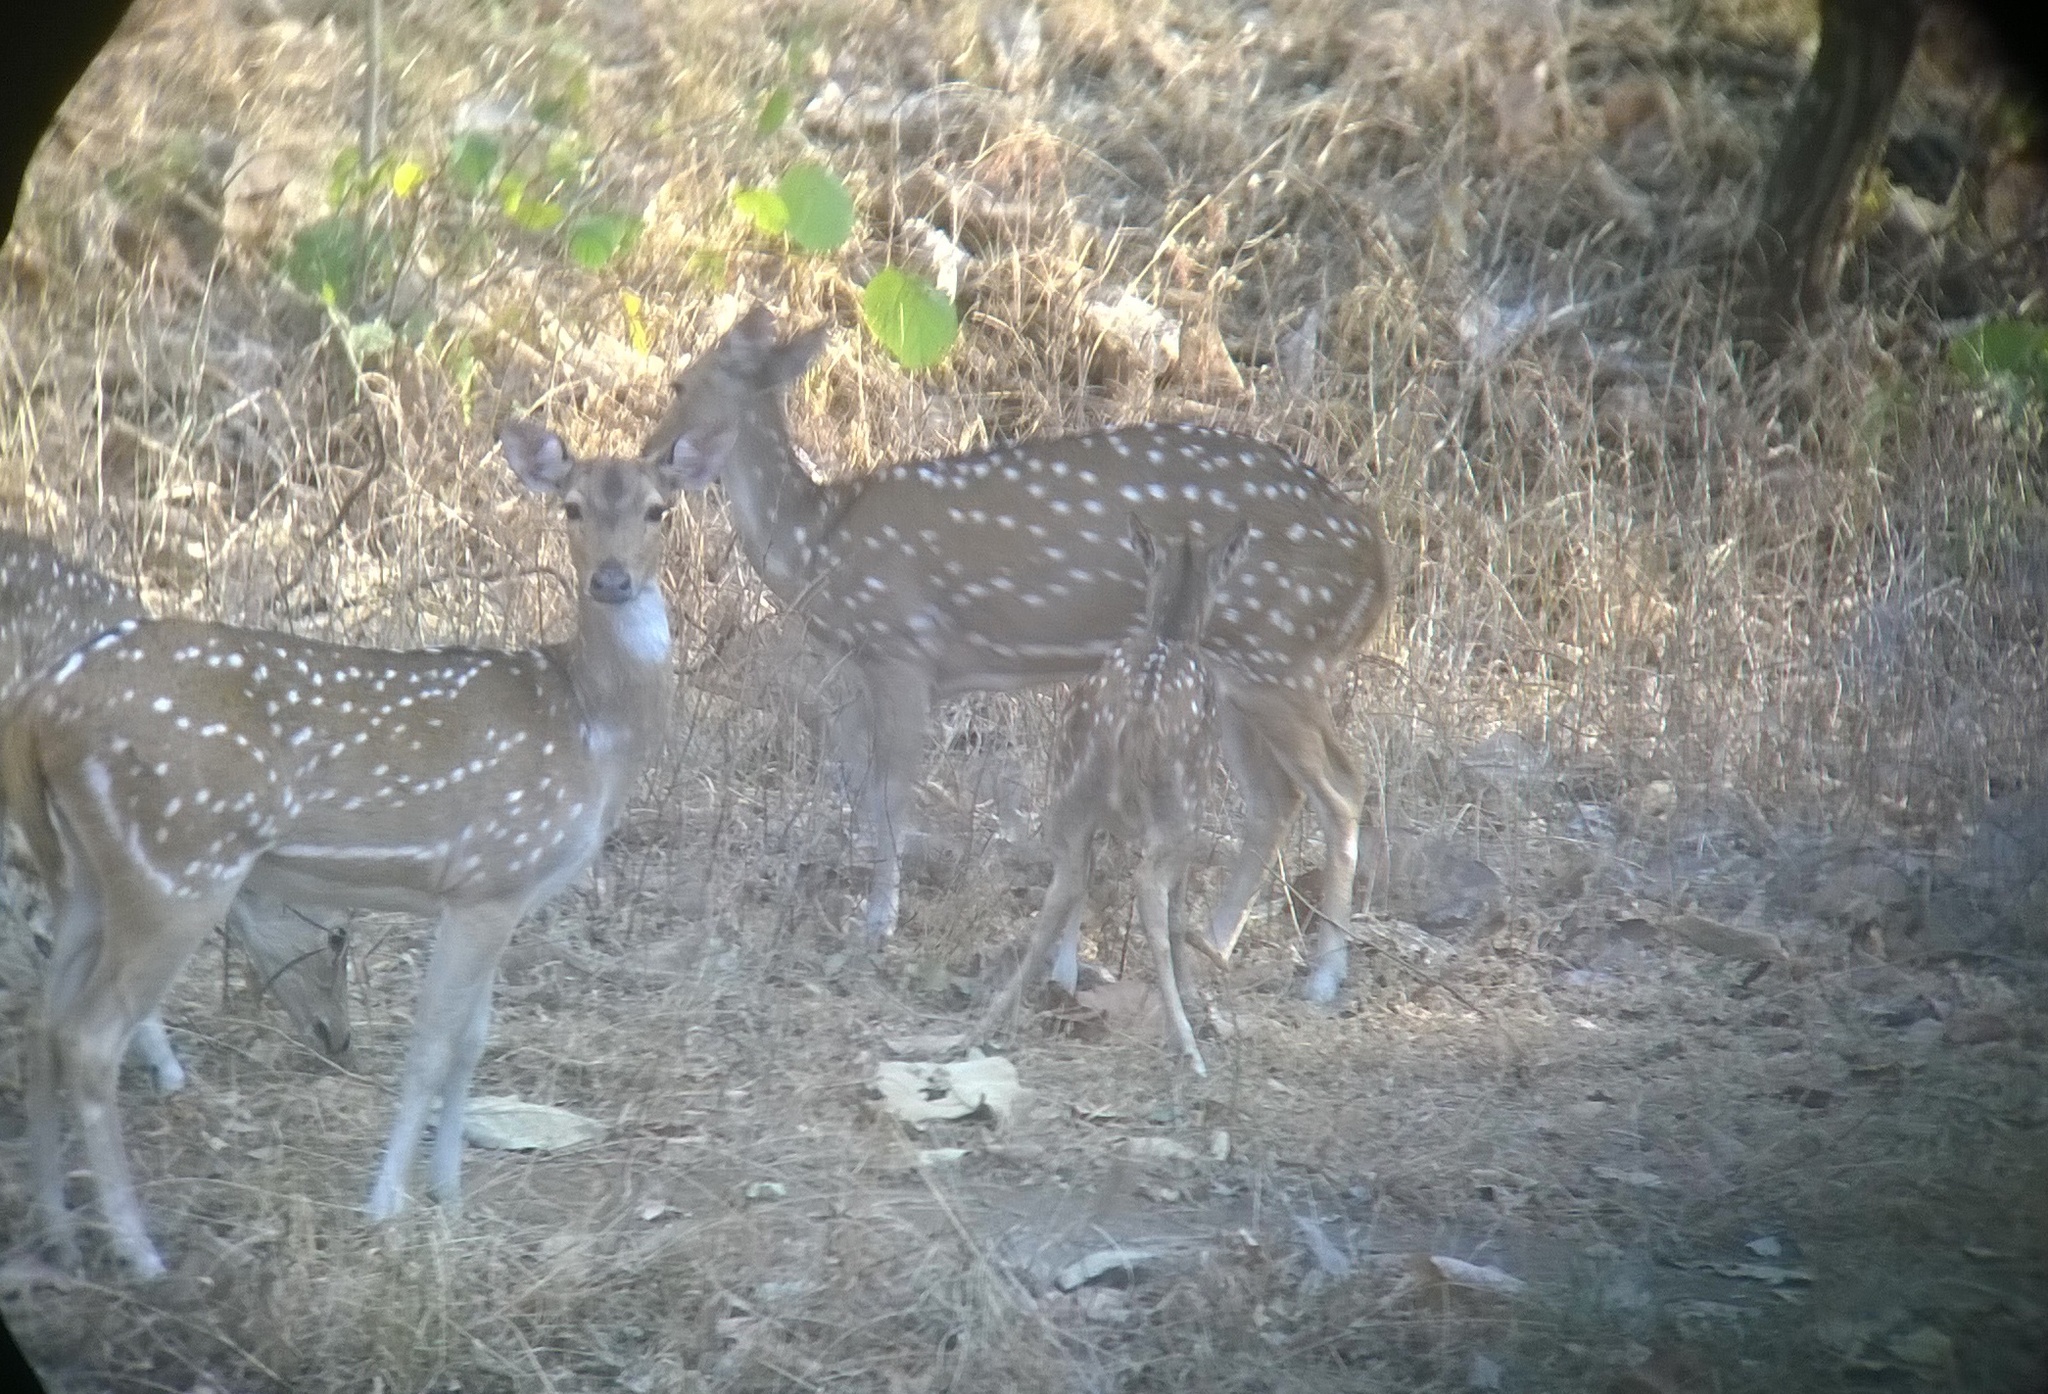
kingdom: Animalia
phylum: Chordata
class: Mammalia
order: Artiodactyla
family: Cervidae
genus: Axis
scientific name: Axis axis
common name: Chital
